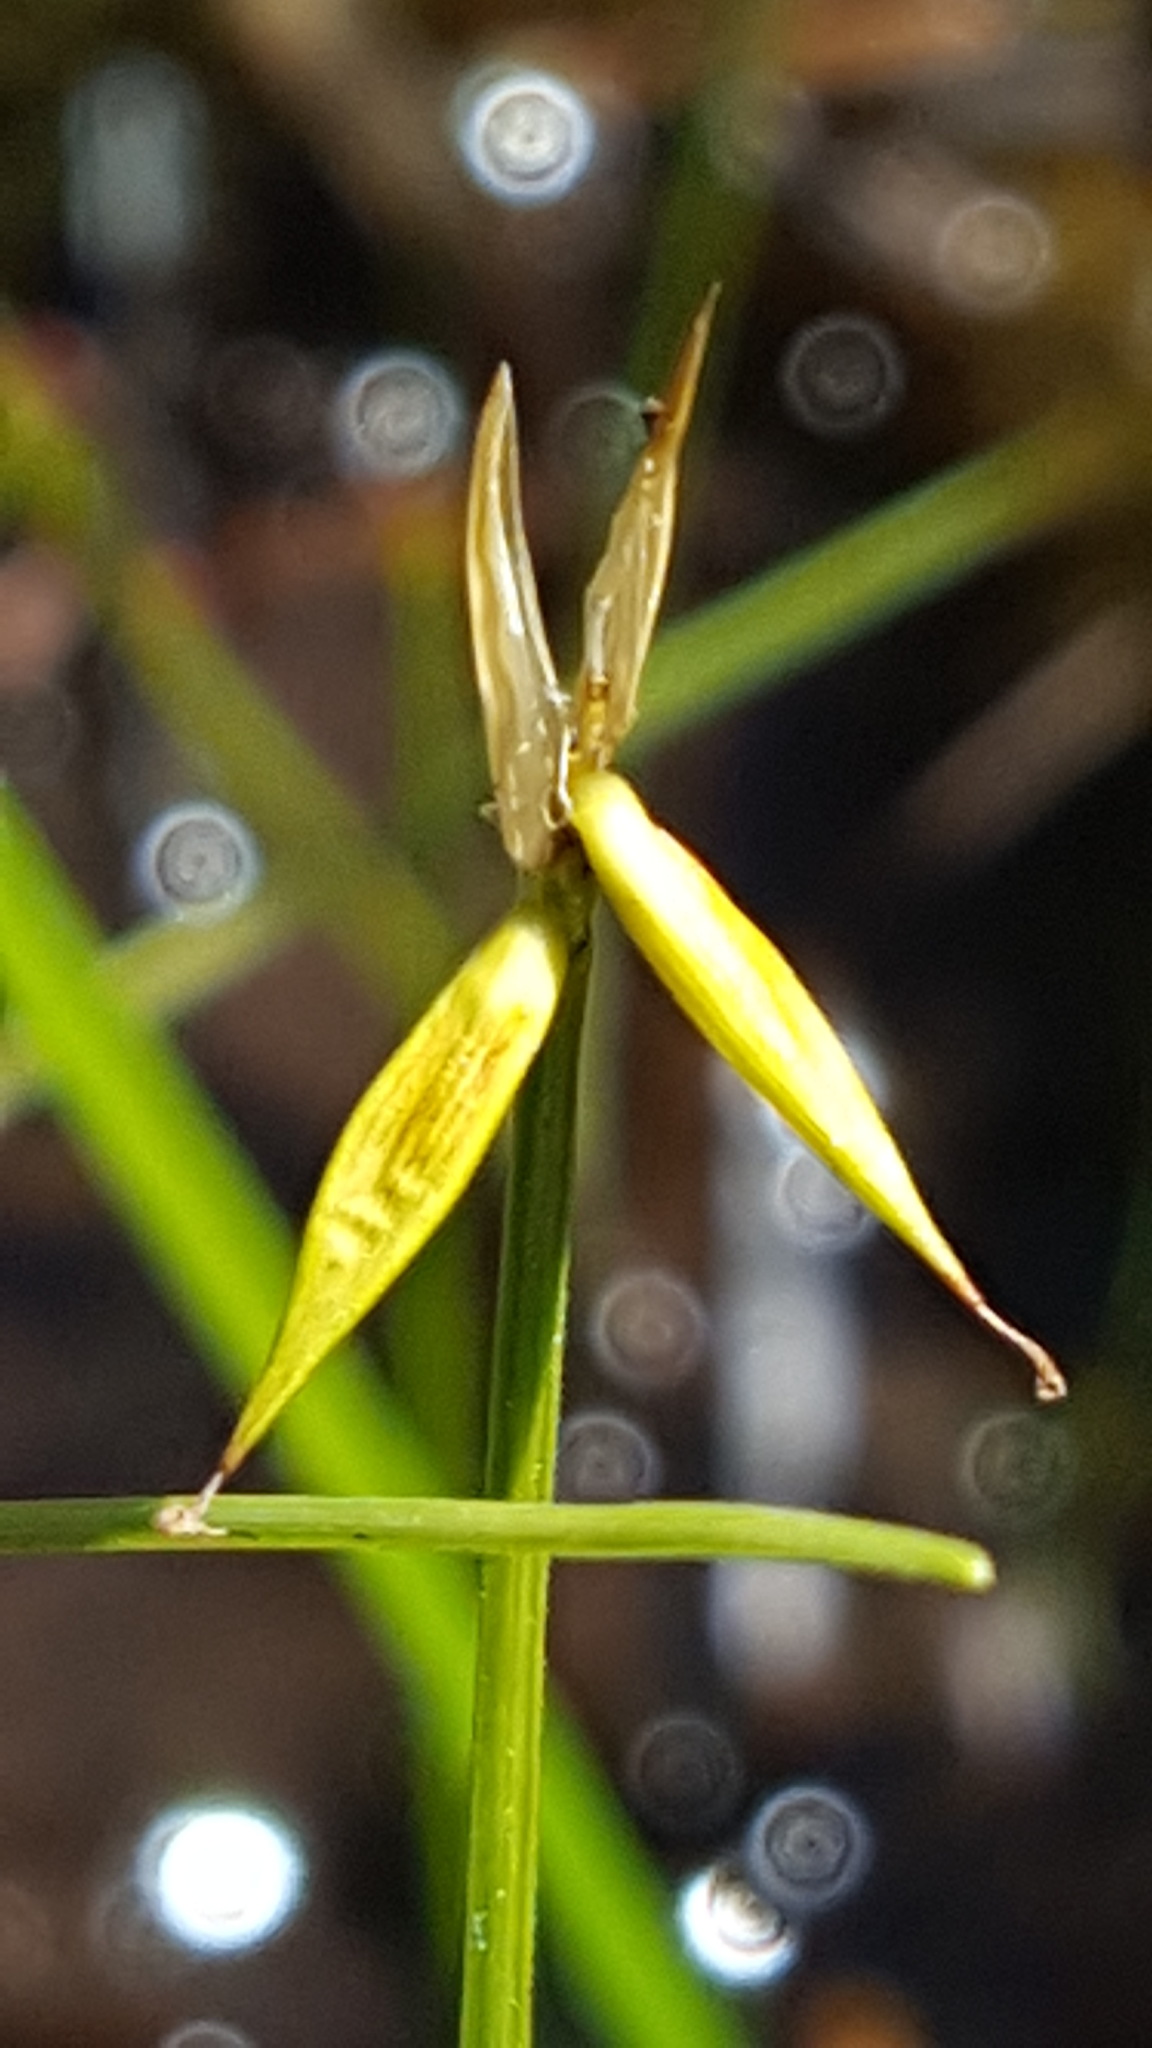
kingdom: Plantae
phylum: Tracheophyta
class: Liliopsida
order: Poales
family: Cyperaceae
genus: Carex
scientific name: Carex pauciflora
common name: Few-flowered sedge
